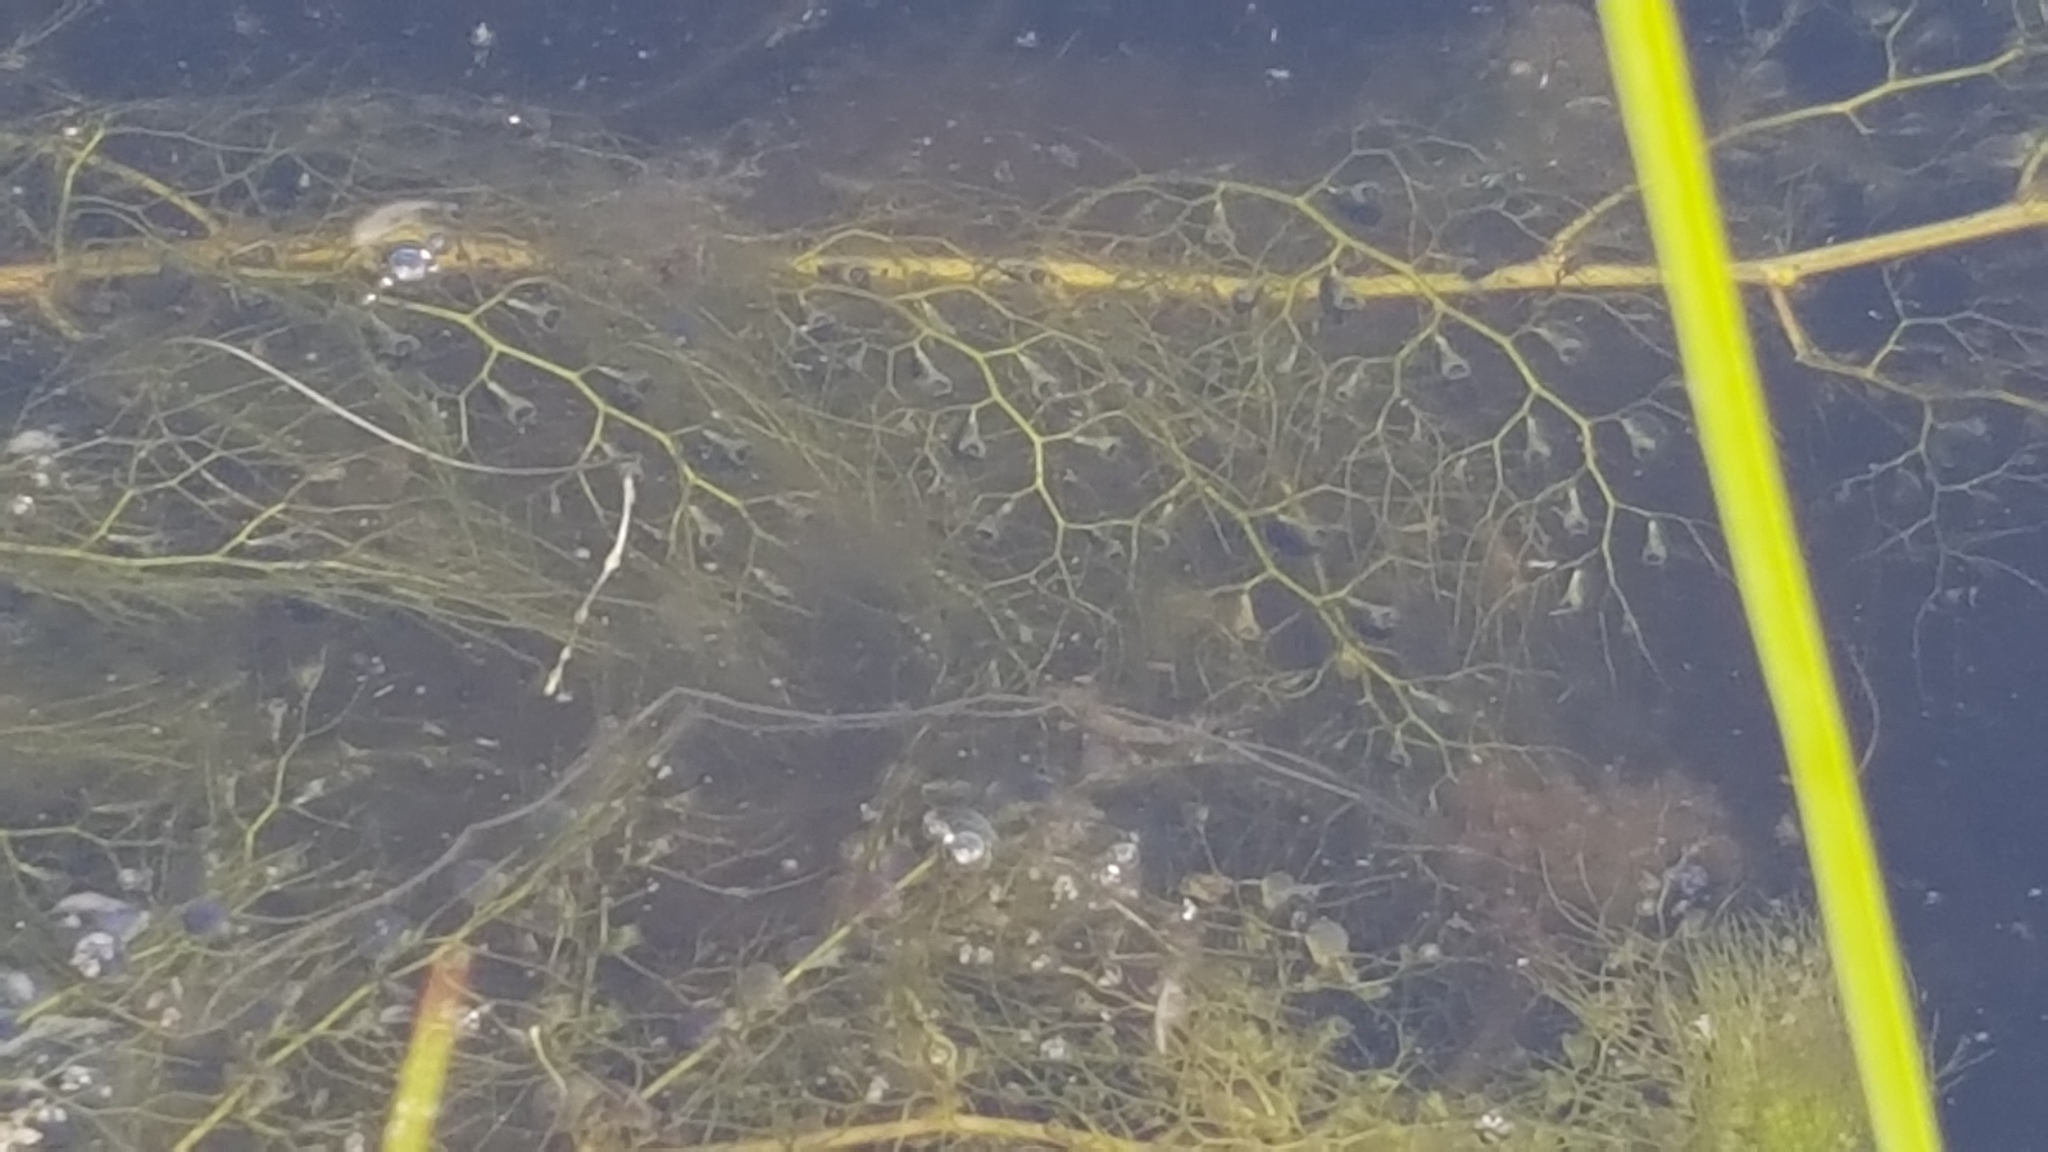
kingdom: Plantae
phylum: Tracheophyta
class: Magnoliopsida
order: Lamiales
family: Lentibulariaceae
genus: Utricularia
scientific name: Utricularia macrorhiza
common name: Common bladderwort
